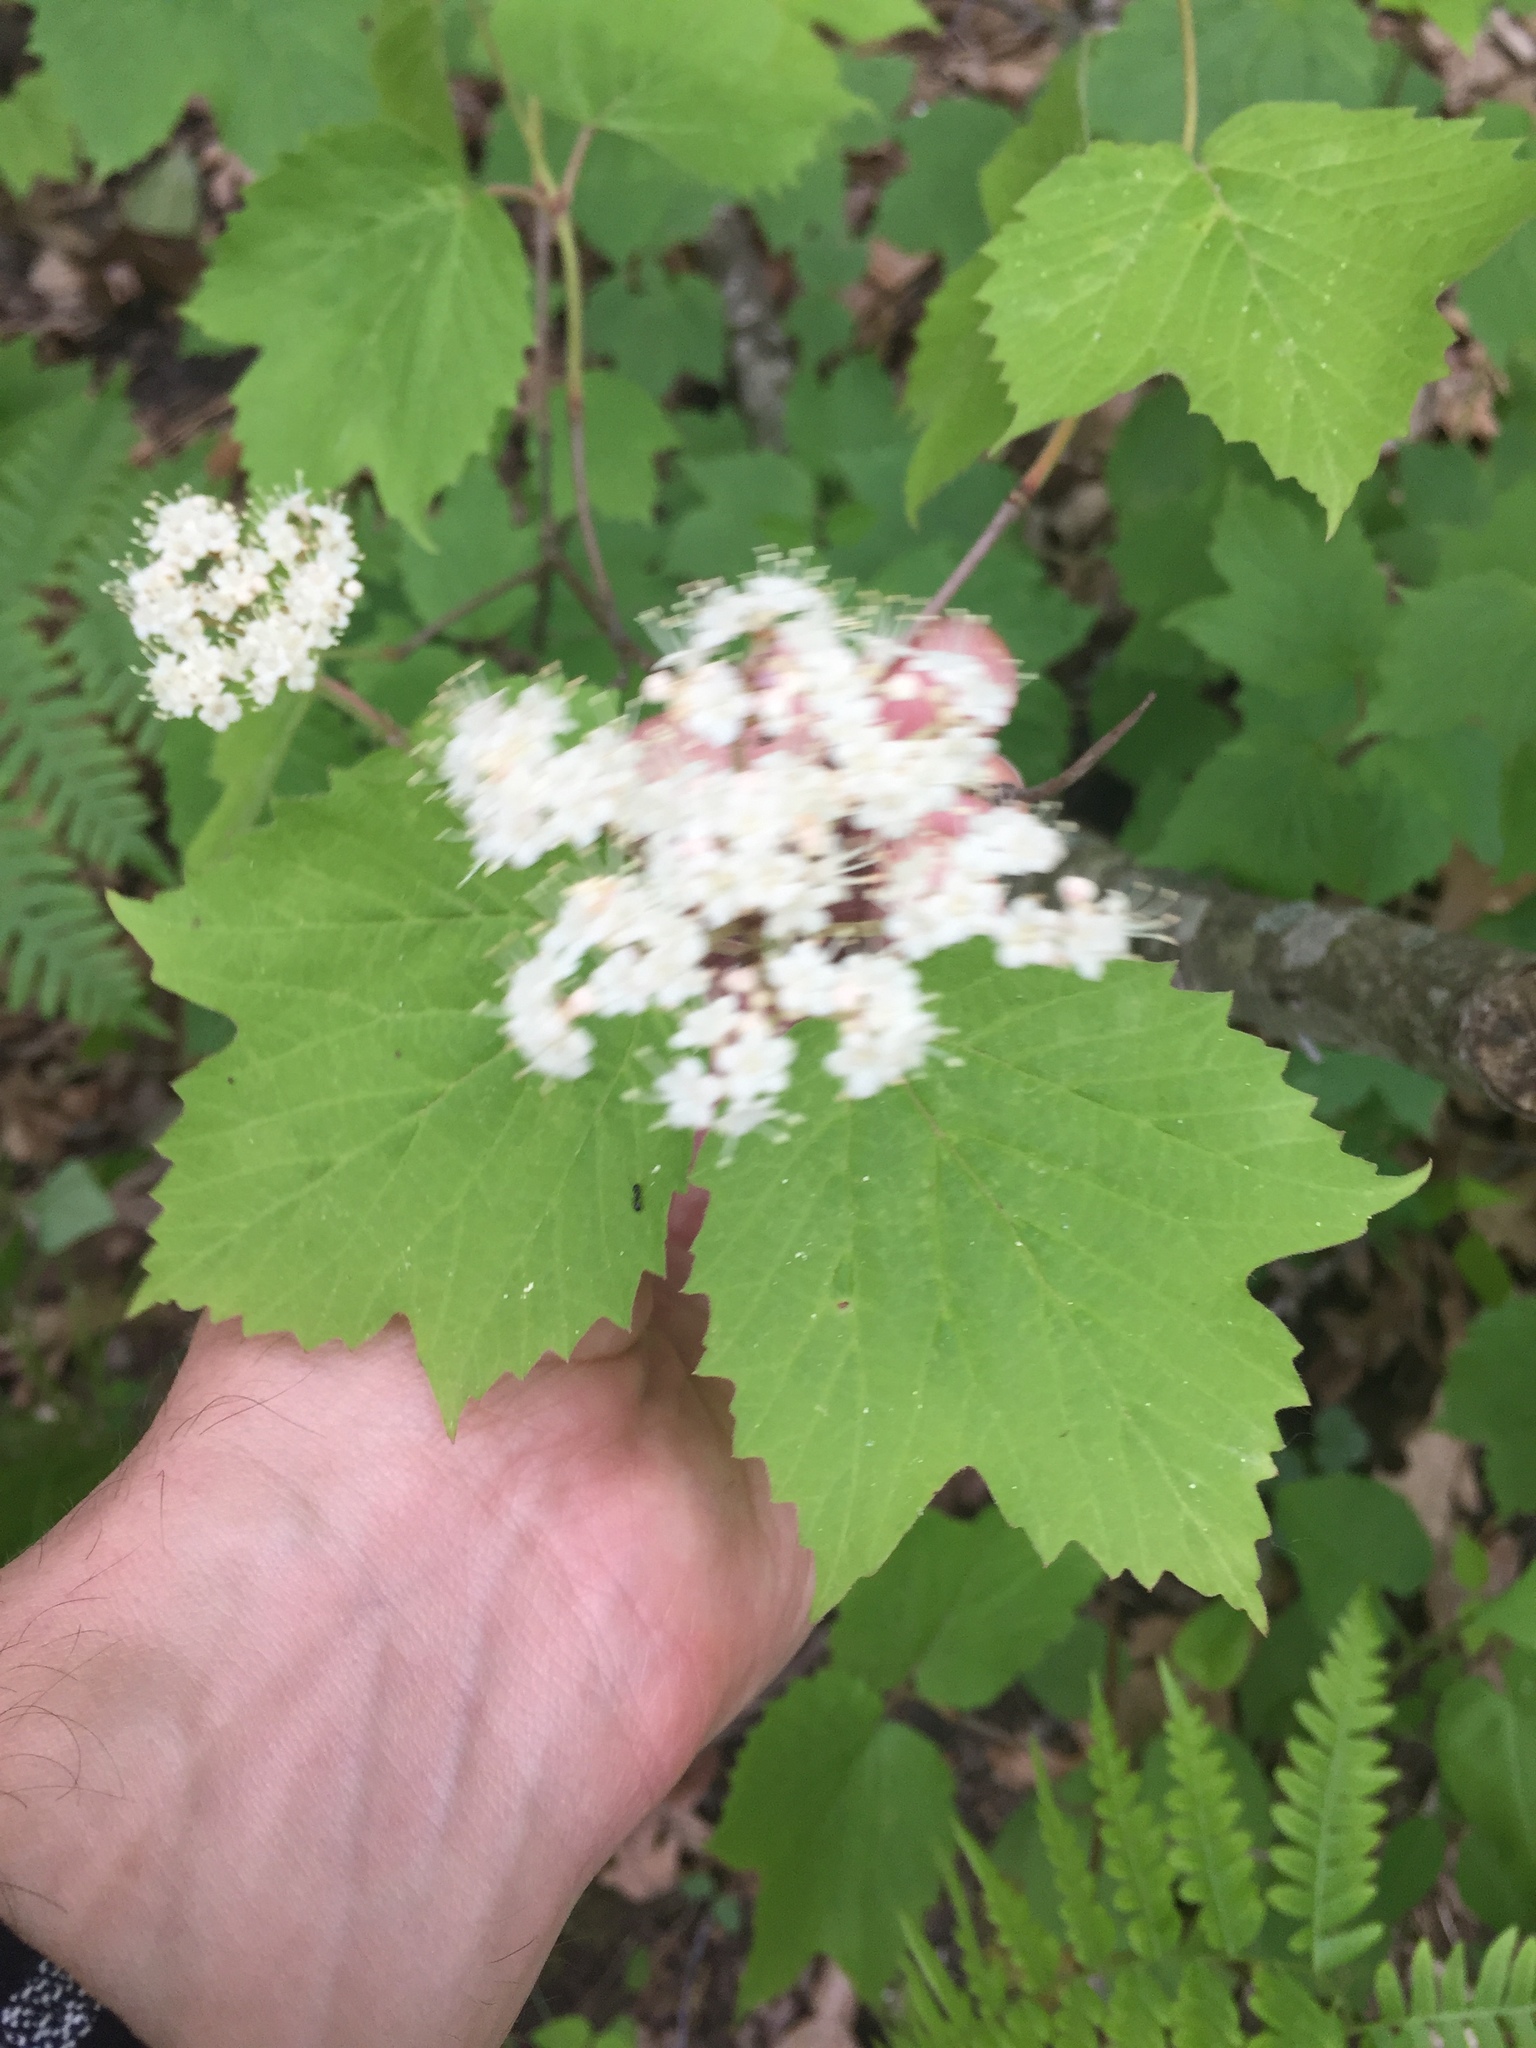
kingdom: Plantae
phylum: Tracheophyta
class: Magnoliopsida
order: Dipsacales
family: Viburnaceae
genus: Viburnum
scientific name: Viburnum acerifolium
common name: Dockmackie
